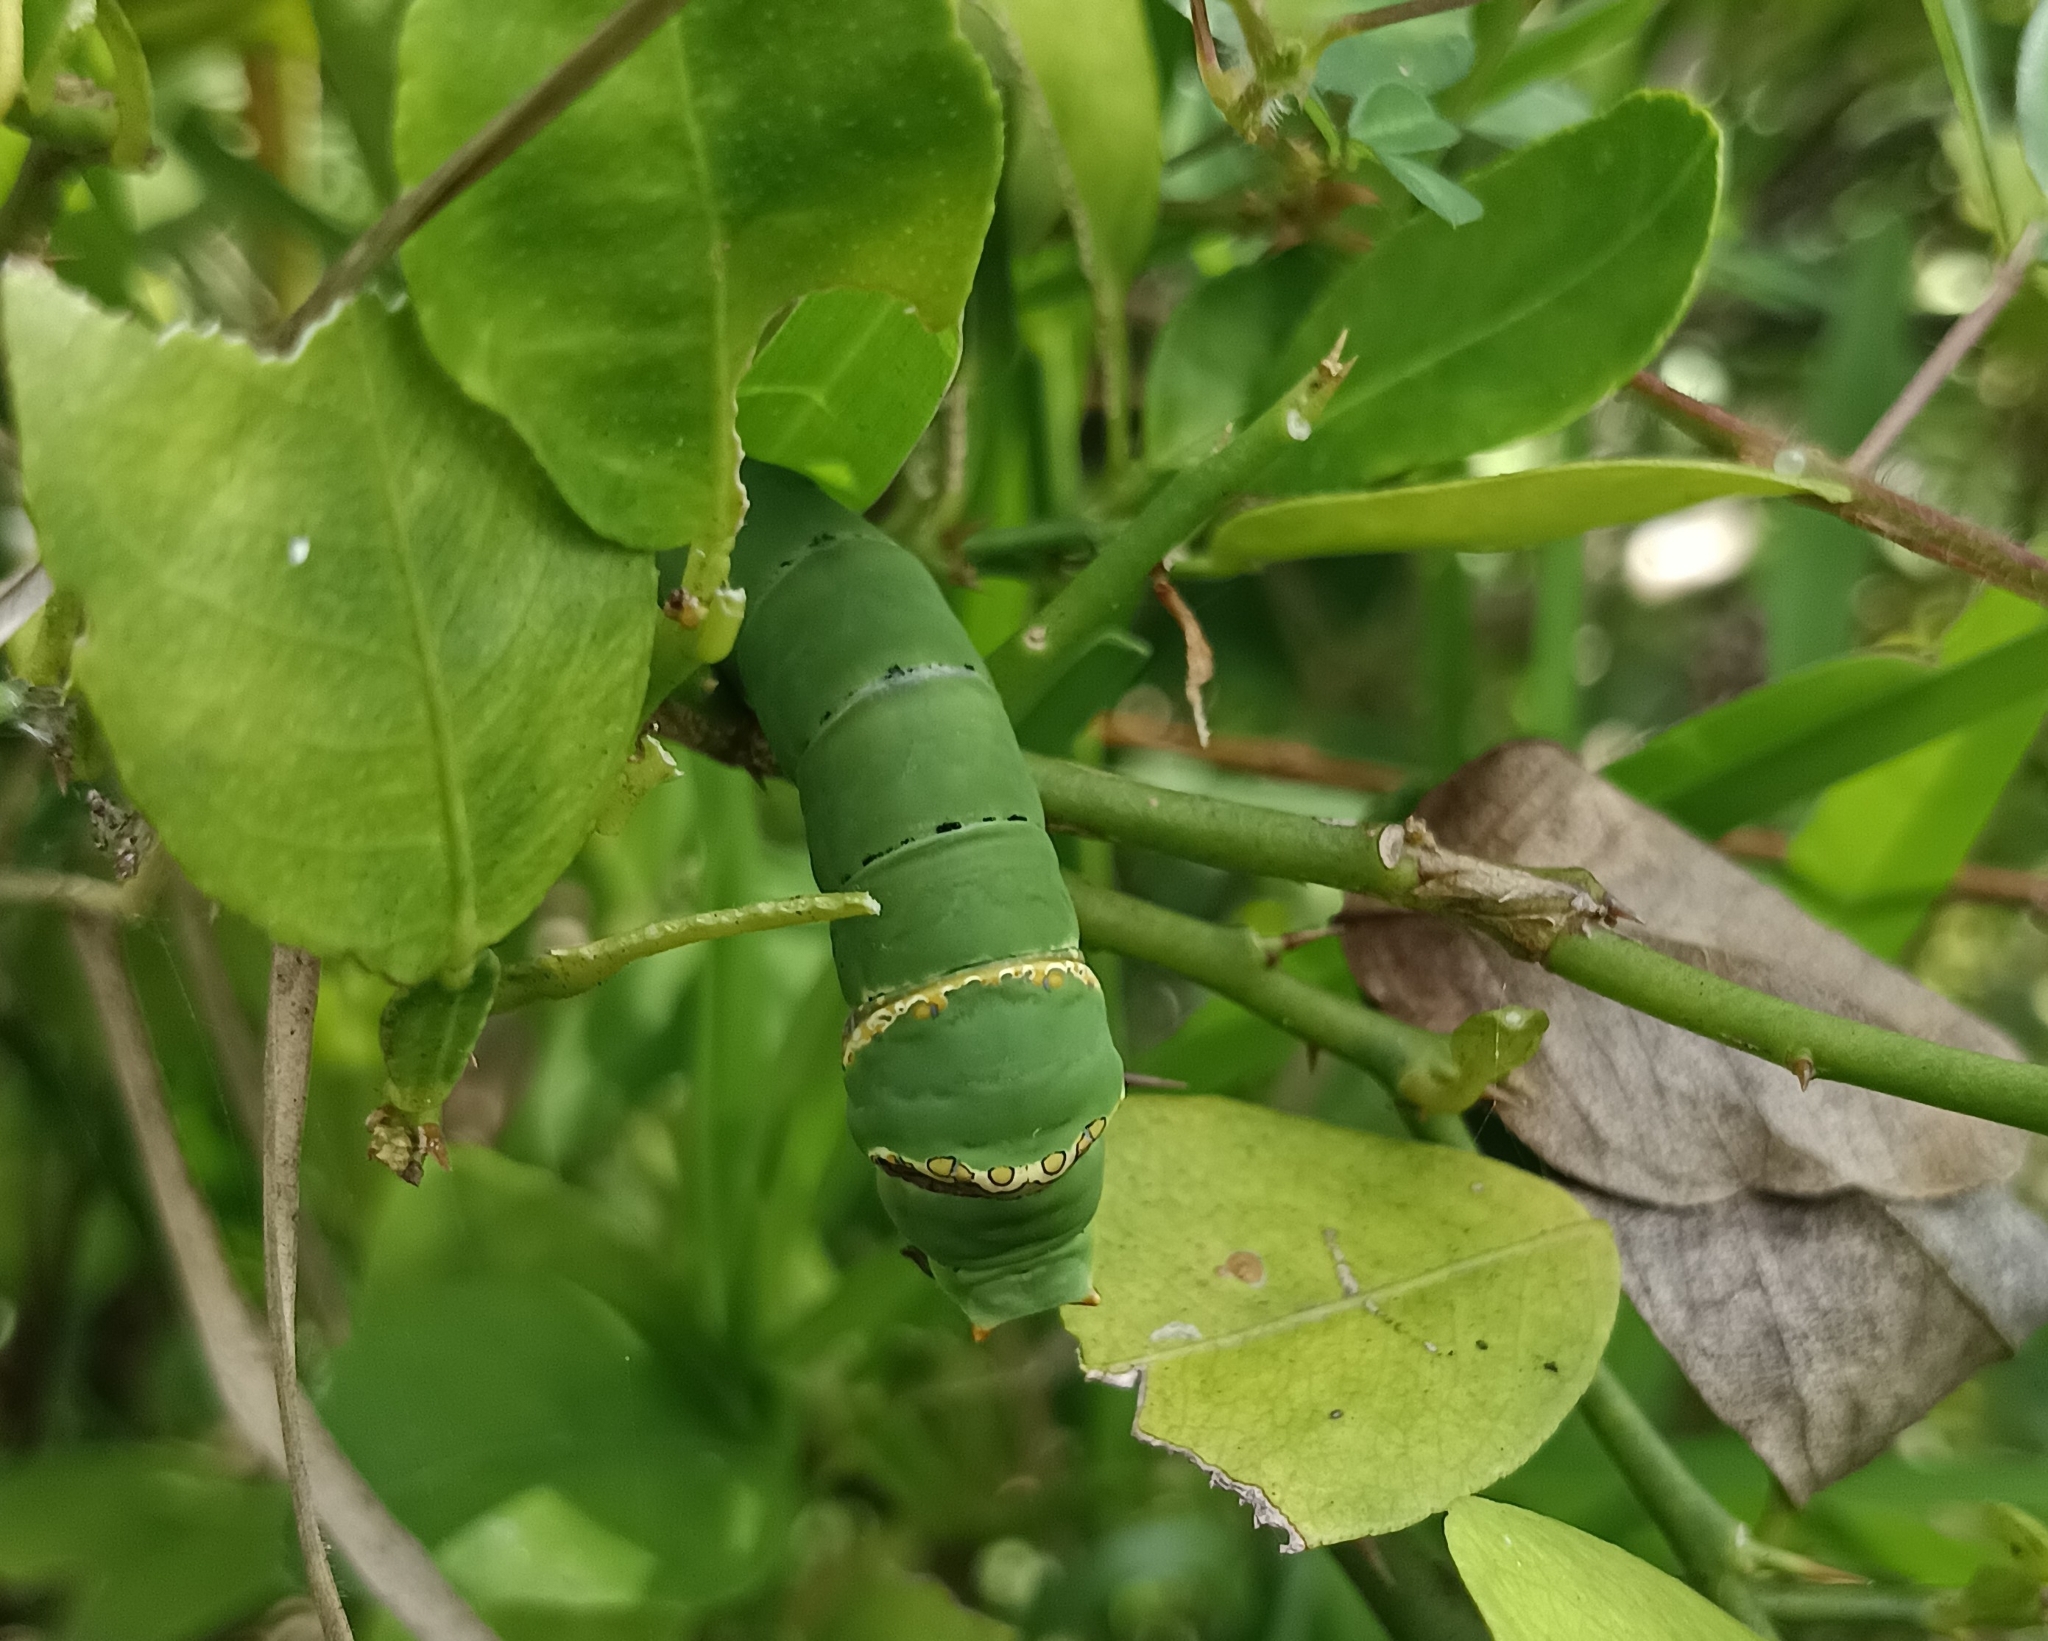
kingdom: Animalia
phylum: Arthropoda
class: Insecta
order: Lepidoptera
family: Papilionidae
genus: Papilio
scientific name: Papilio demoleus
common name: Lime butterfly
